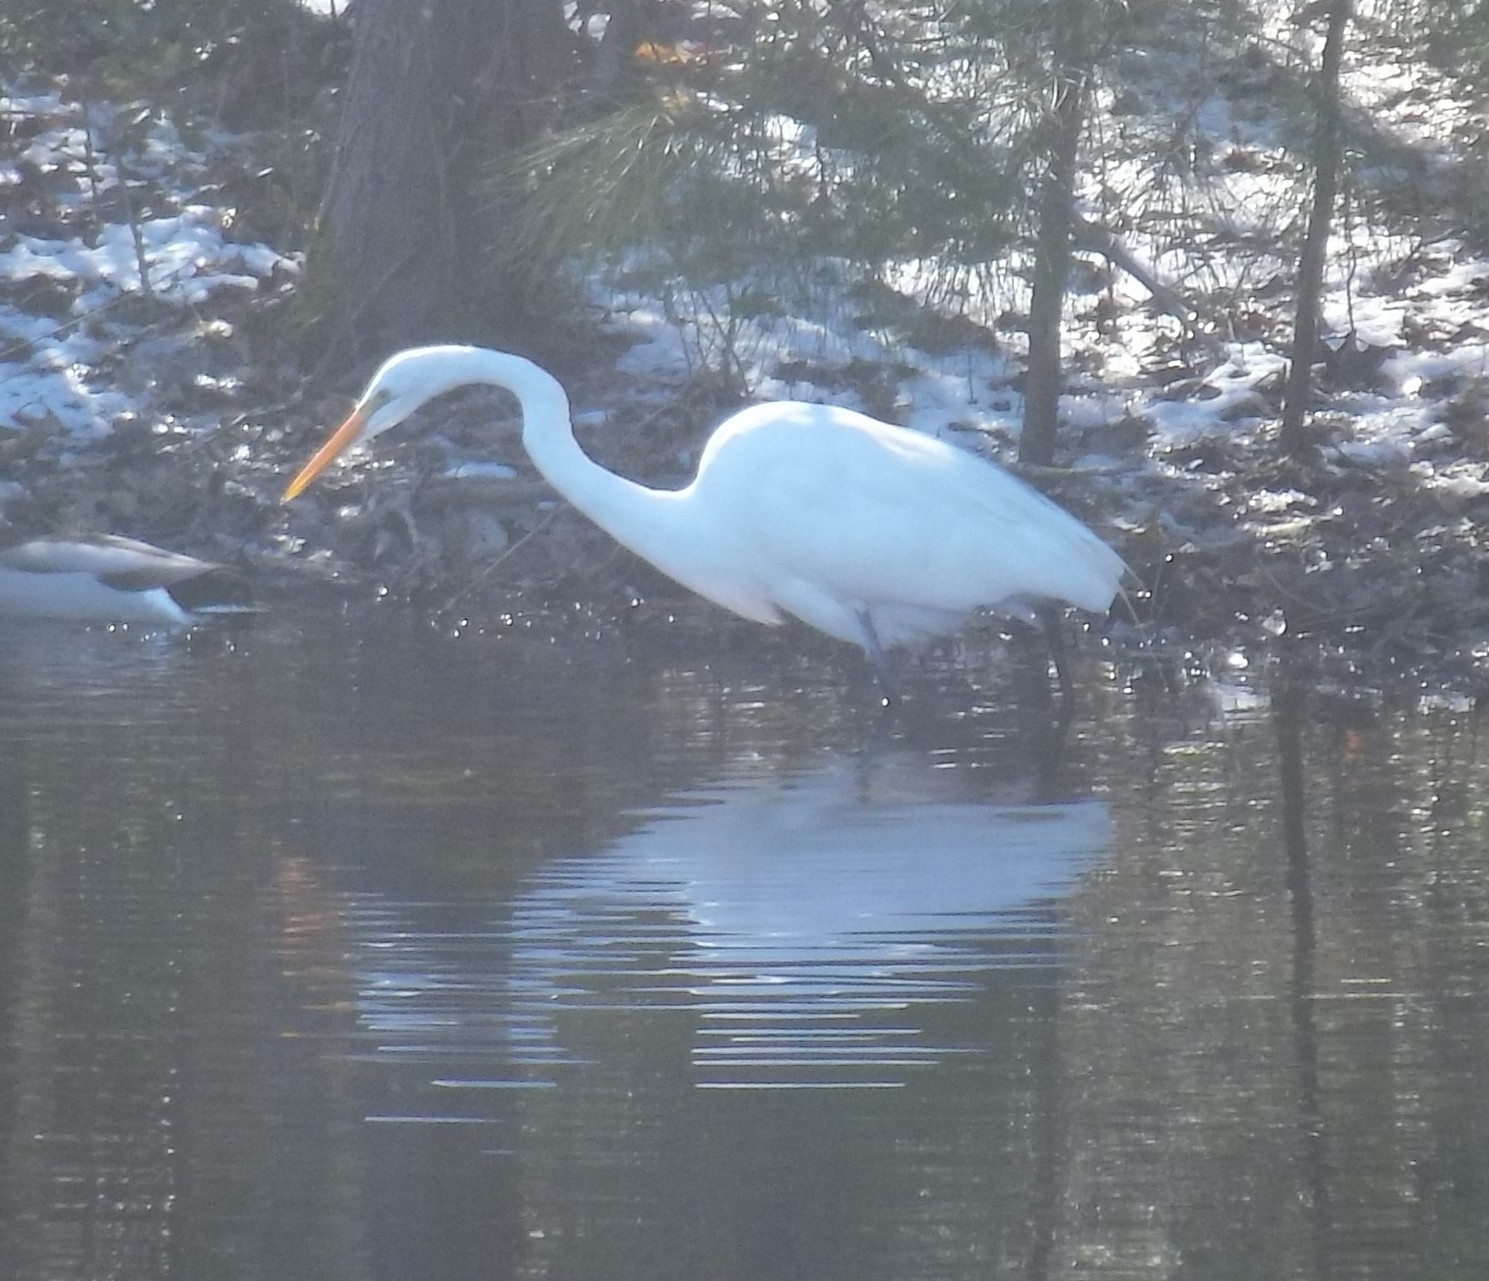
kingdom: Animalia
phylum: Chordata
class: Aves
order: Pelecaniformes
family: Ardeidae
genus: Ardea
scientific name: Ardea alba
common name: Great egret
